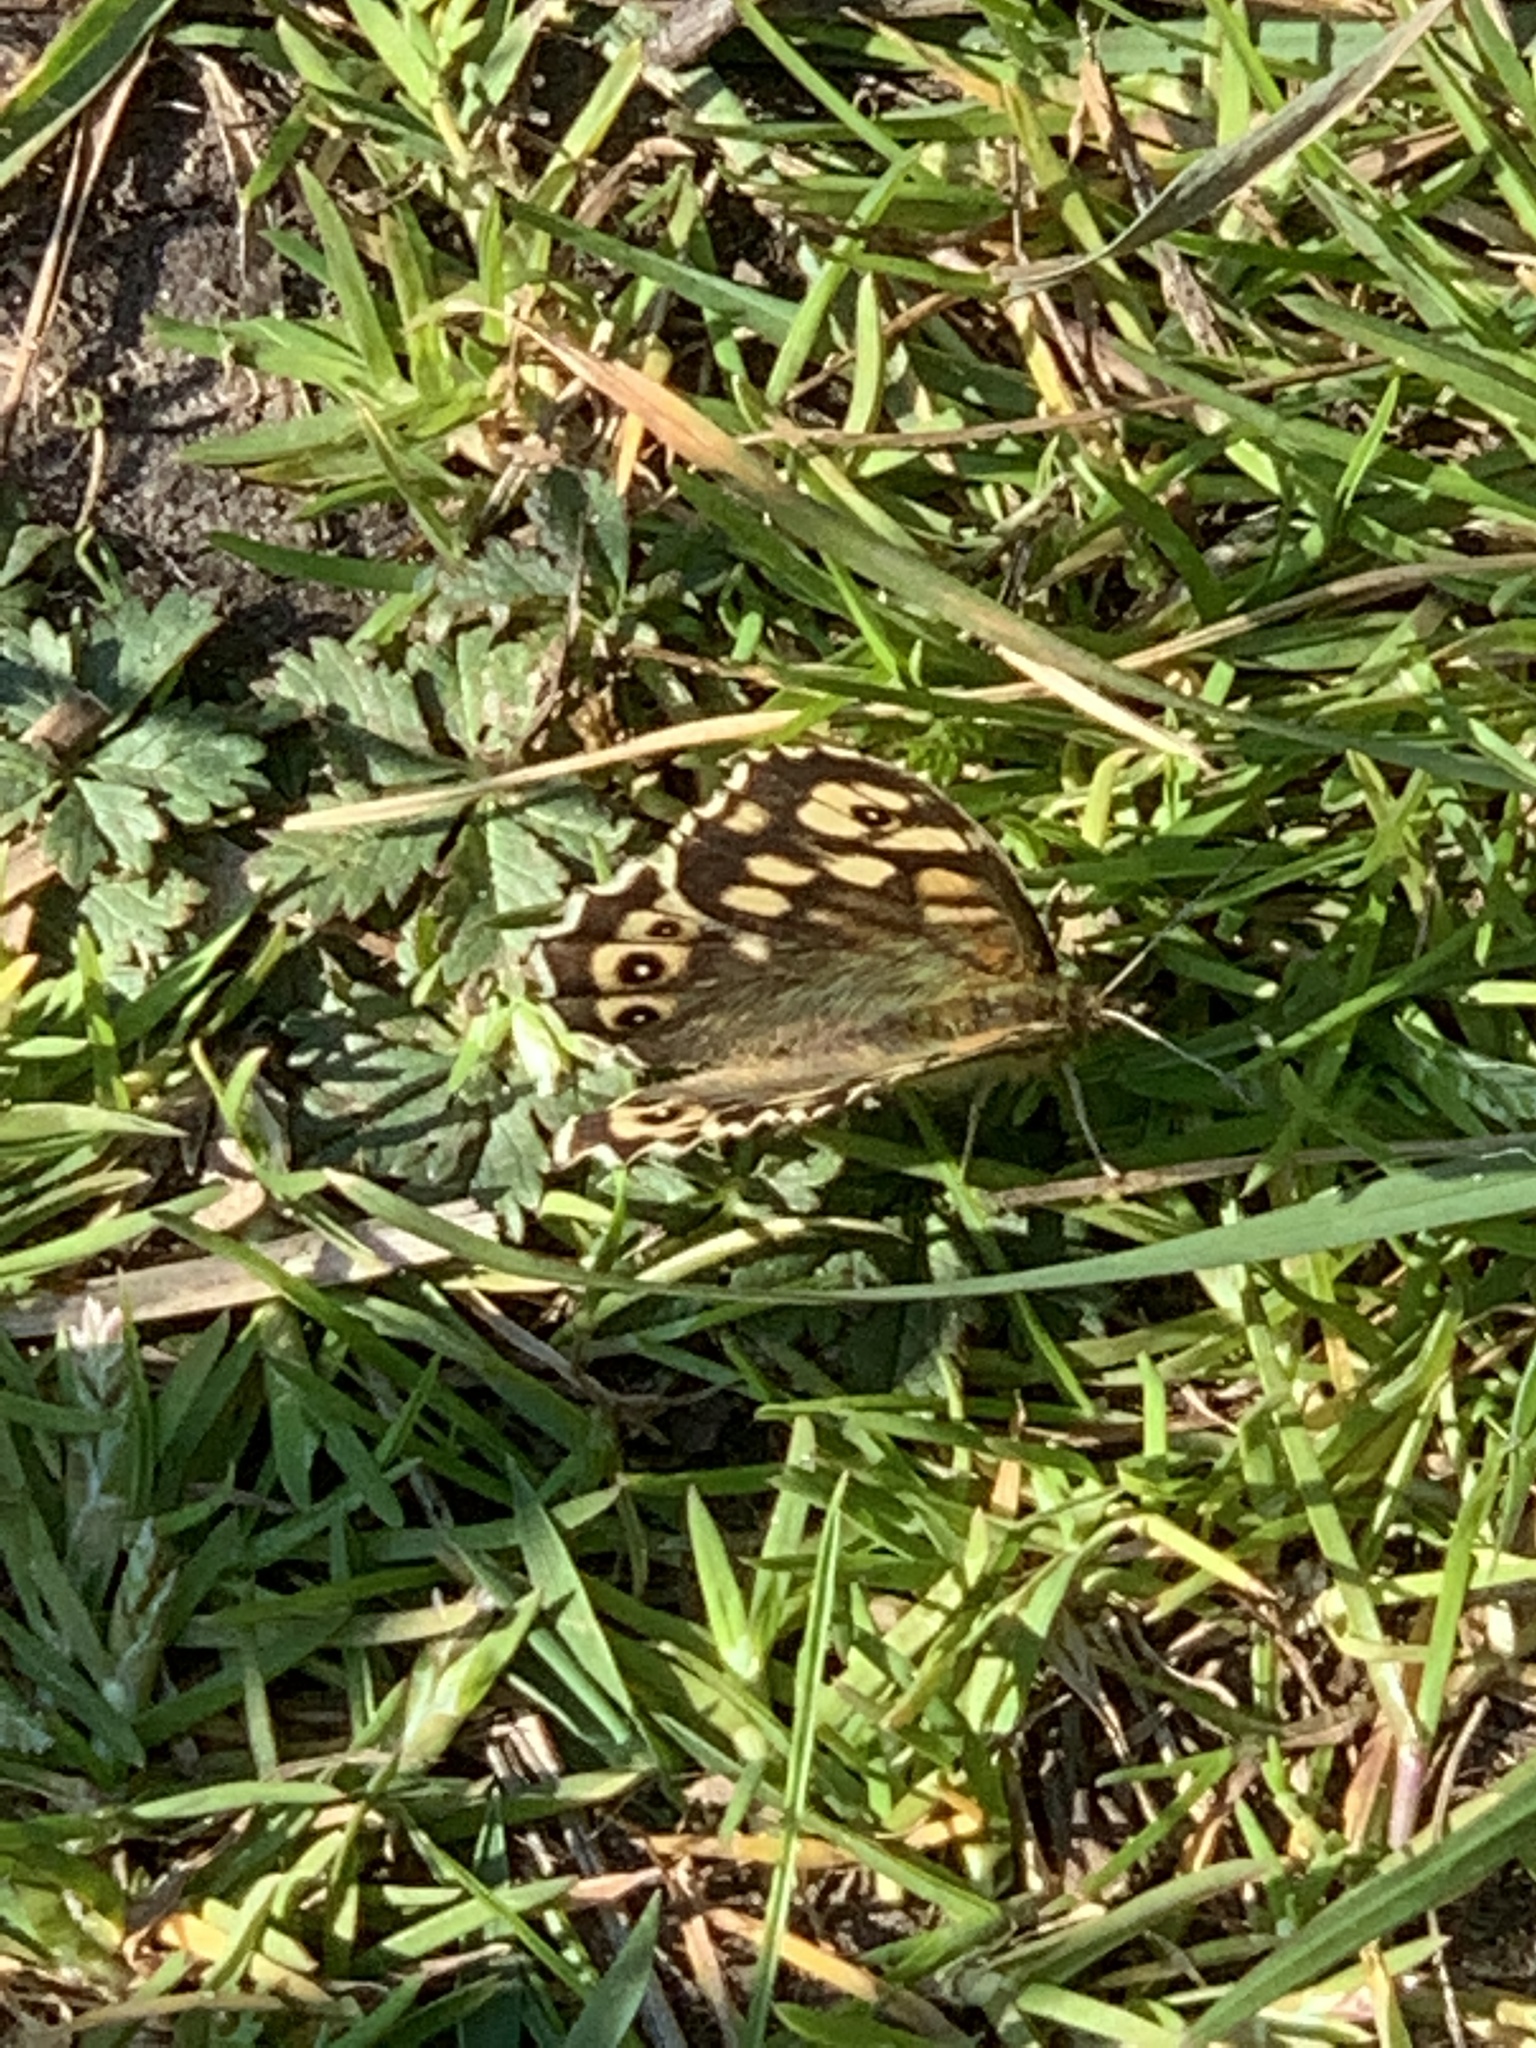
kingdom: Animalia
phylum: Arthropoda
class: Insecta
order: Lepidoptera
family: Nymphalidae
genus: Pararge
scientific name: Pararge aegeria
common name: Speckled wood
